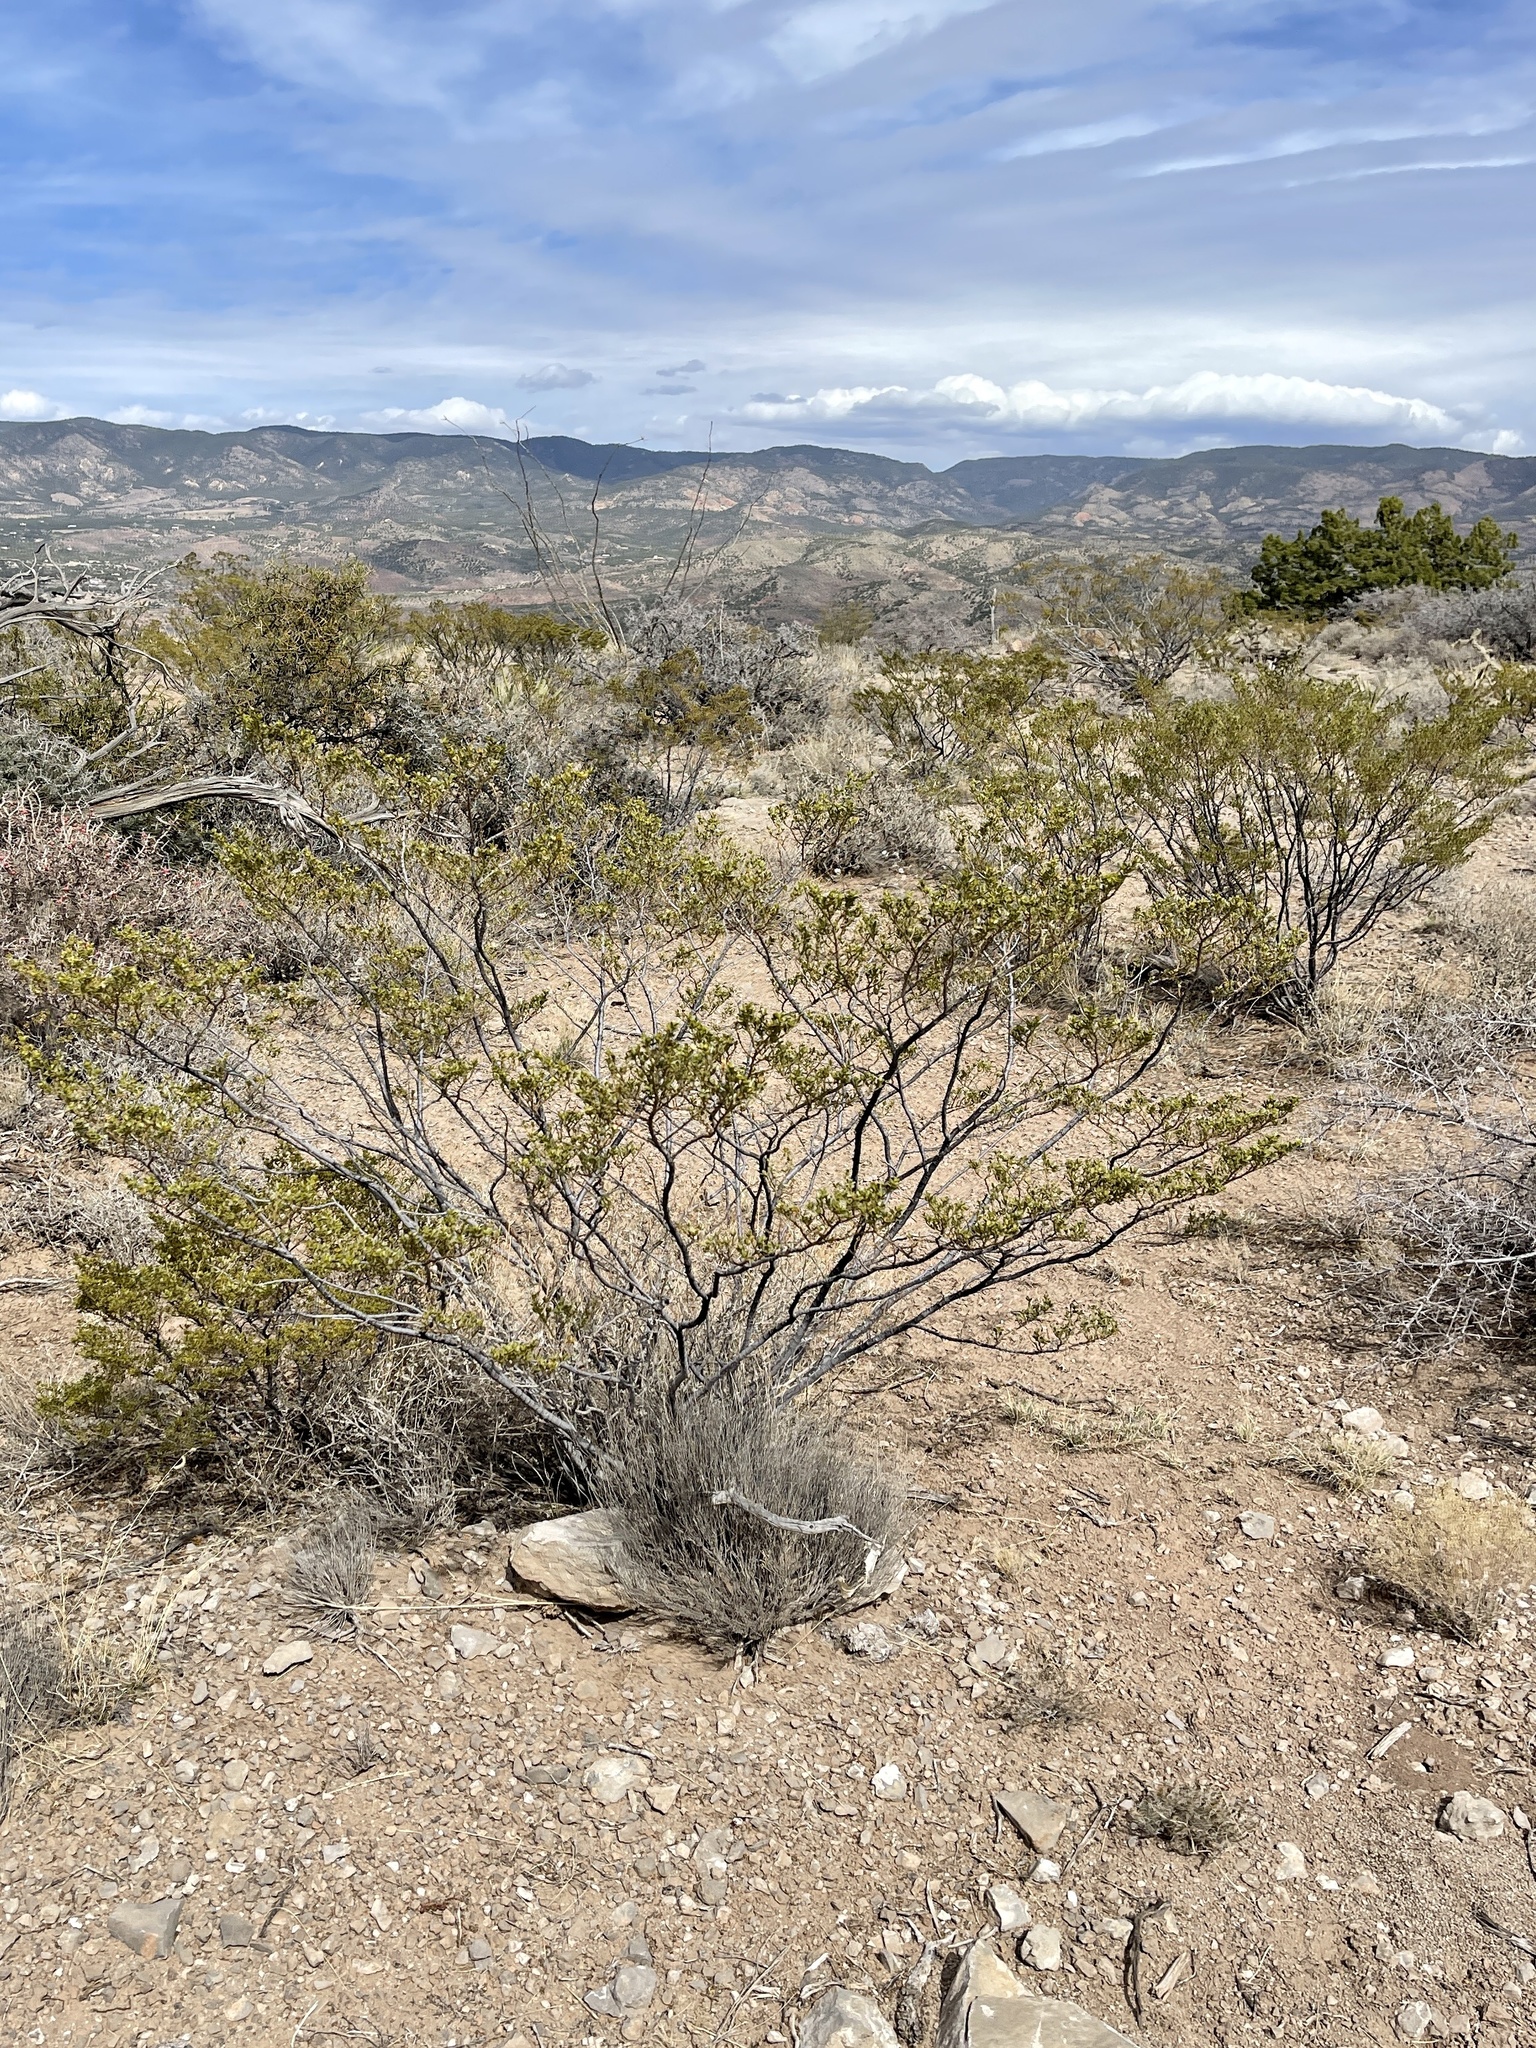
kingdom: Plantae
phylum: Tracheophyta
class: Magnoliopsida
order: Zygophyllales
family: Zygophyllaceae
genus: Larrea
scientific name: Larrea tridentata
